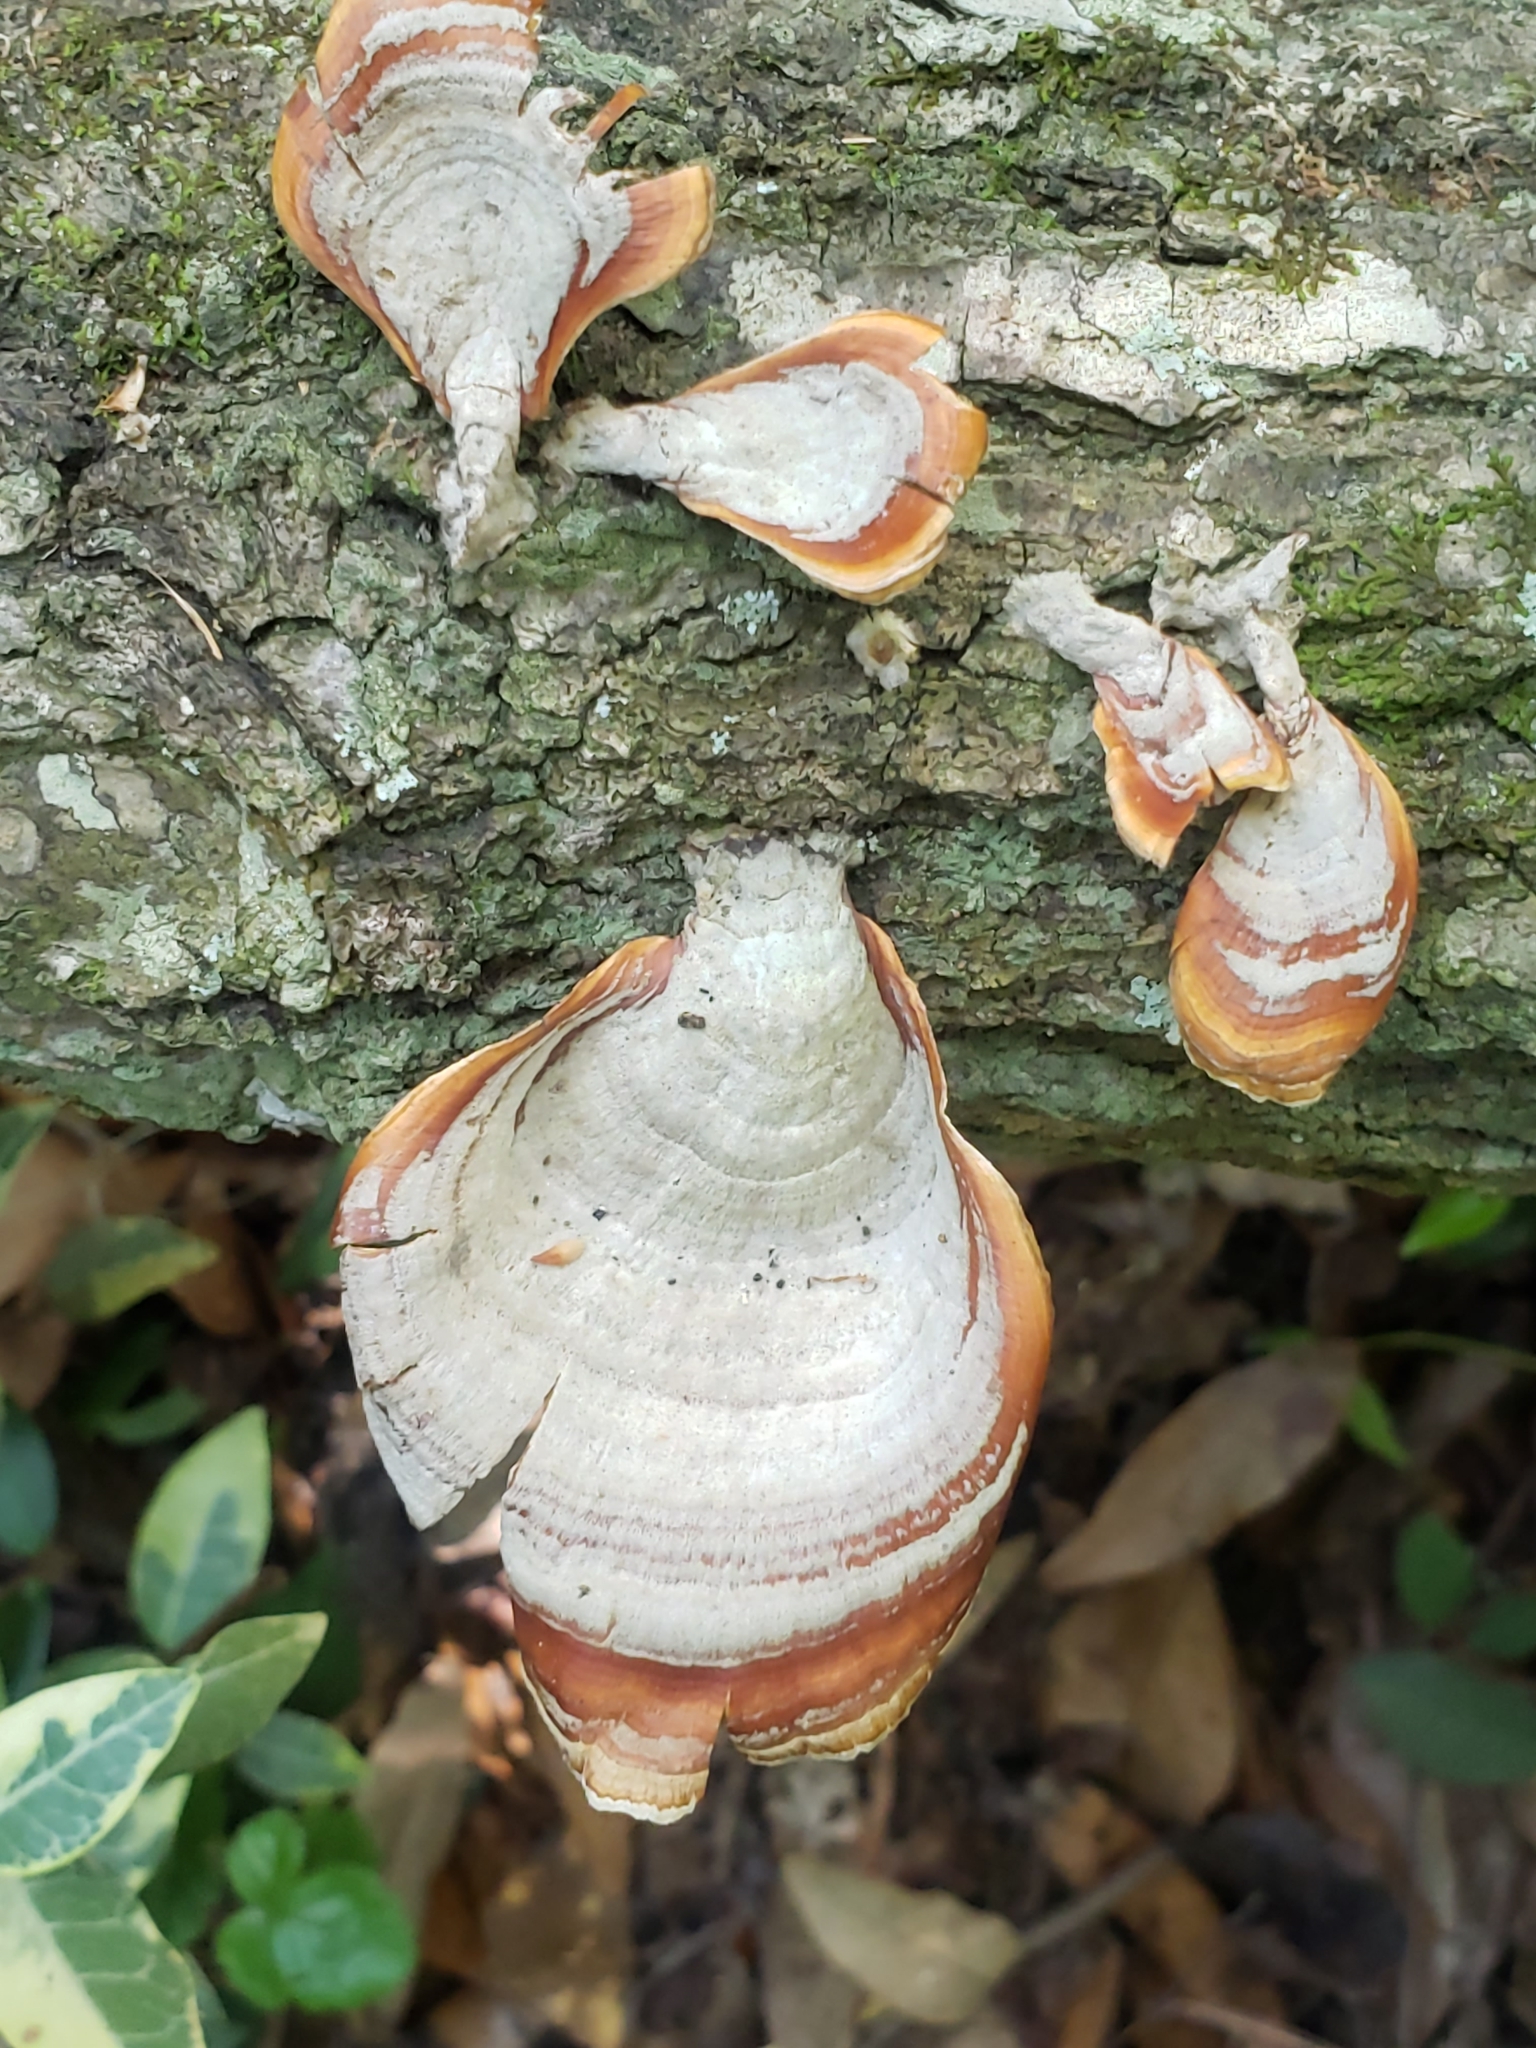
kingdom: Fungi
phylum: Basidiomycota
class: Agaricomycetes
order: Russulales
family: Stereaceae
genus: Stereum
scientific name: Stereum lobatum
